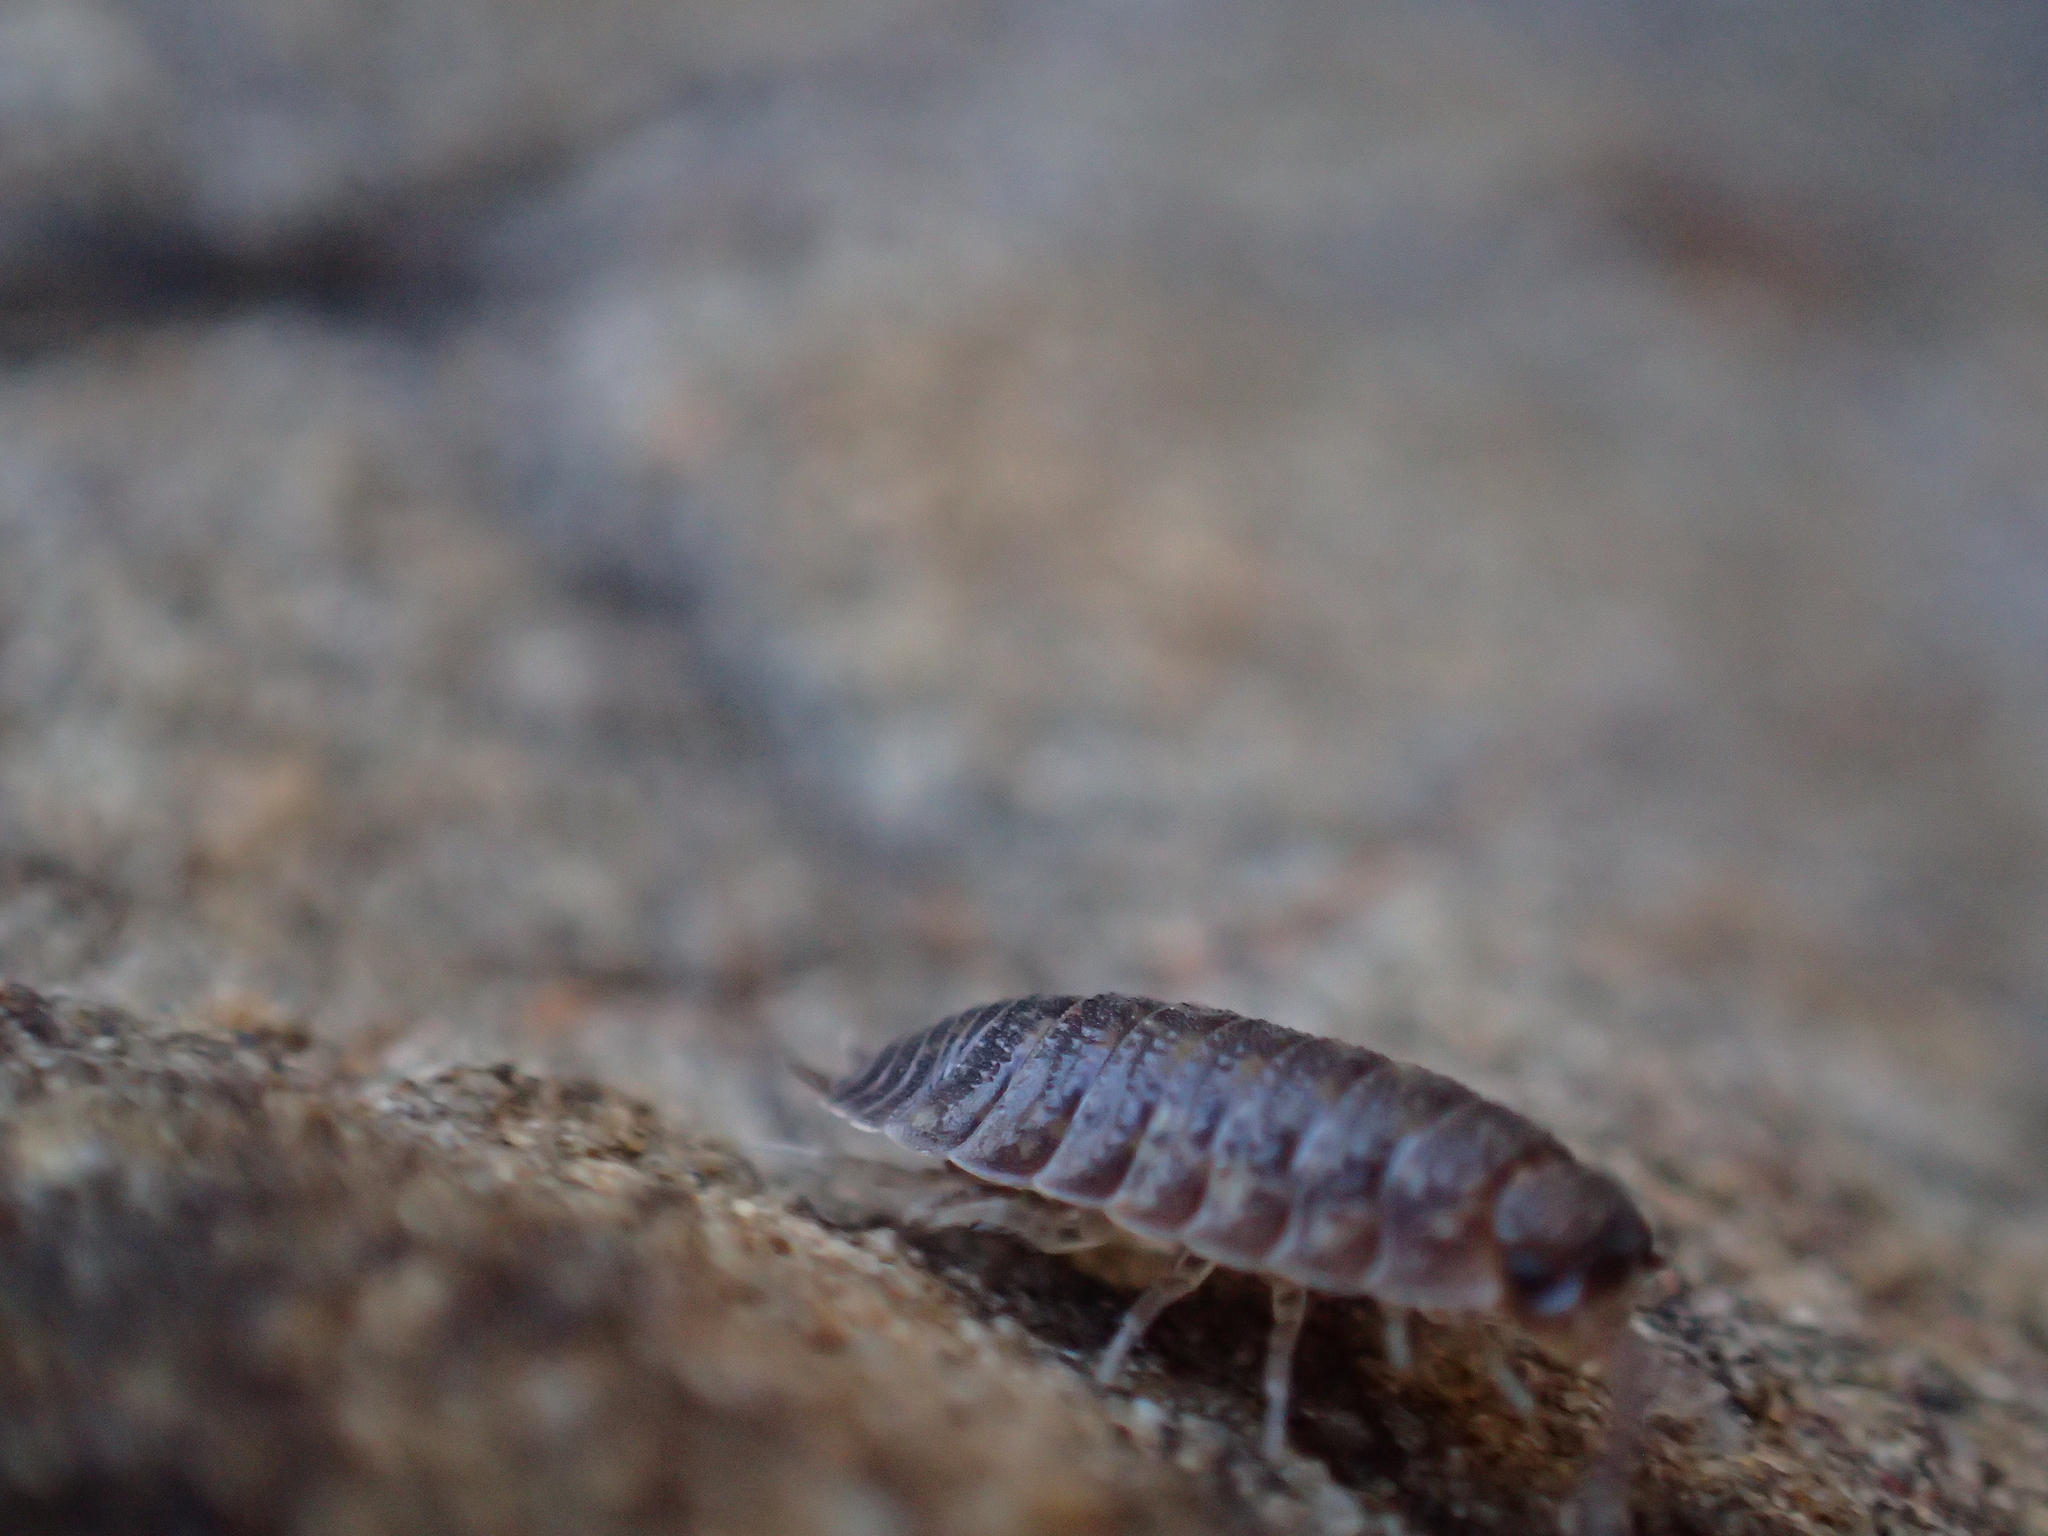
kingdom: Animalia
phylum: Arthropoda
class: Malacostraca
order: Isopoda
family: Porcellionidae
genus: Porcellio
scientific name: Porcellio scaber
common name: Common rough woodlouse
